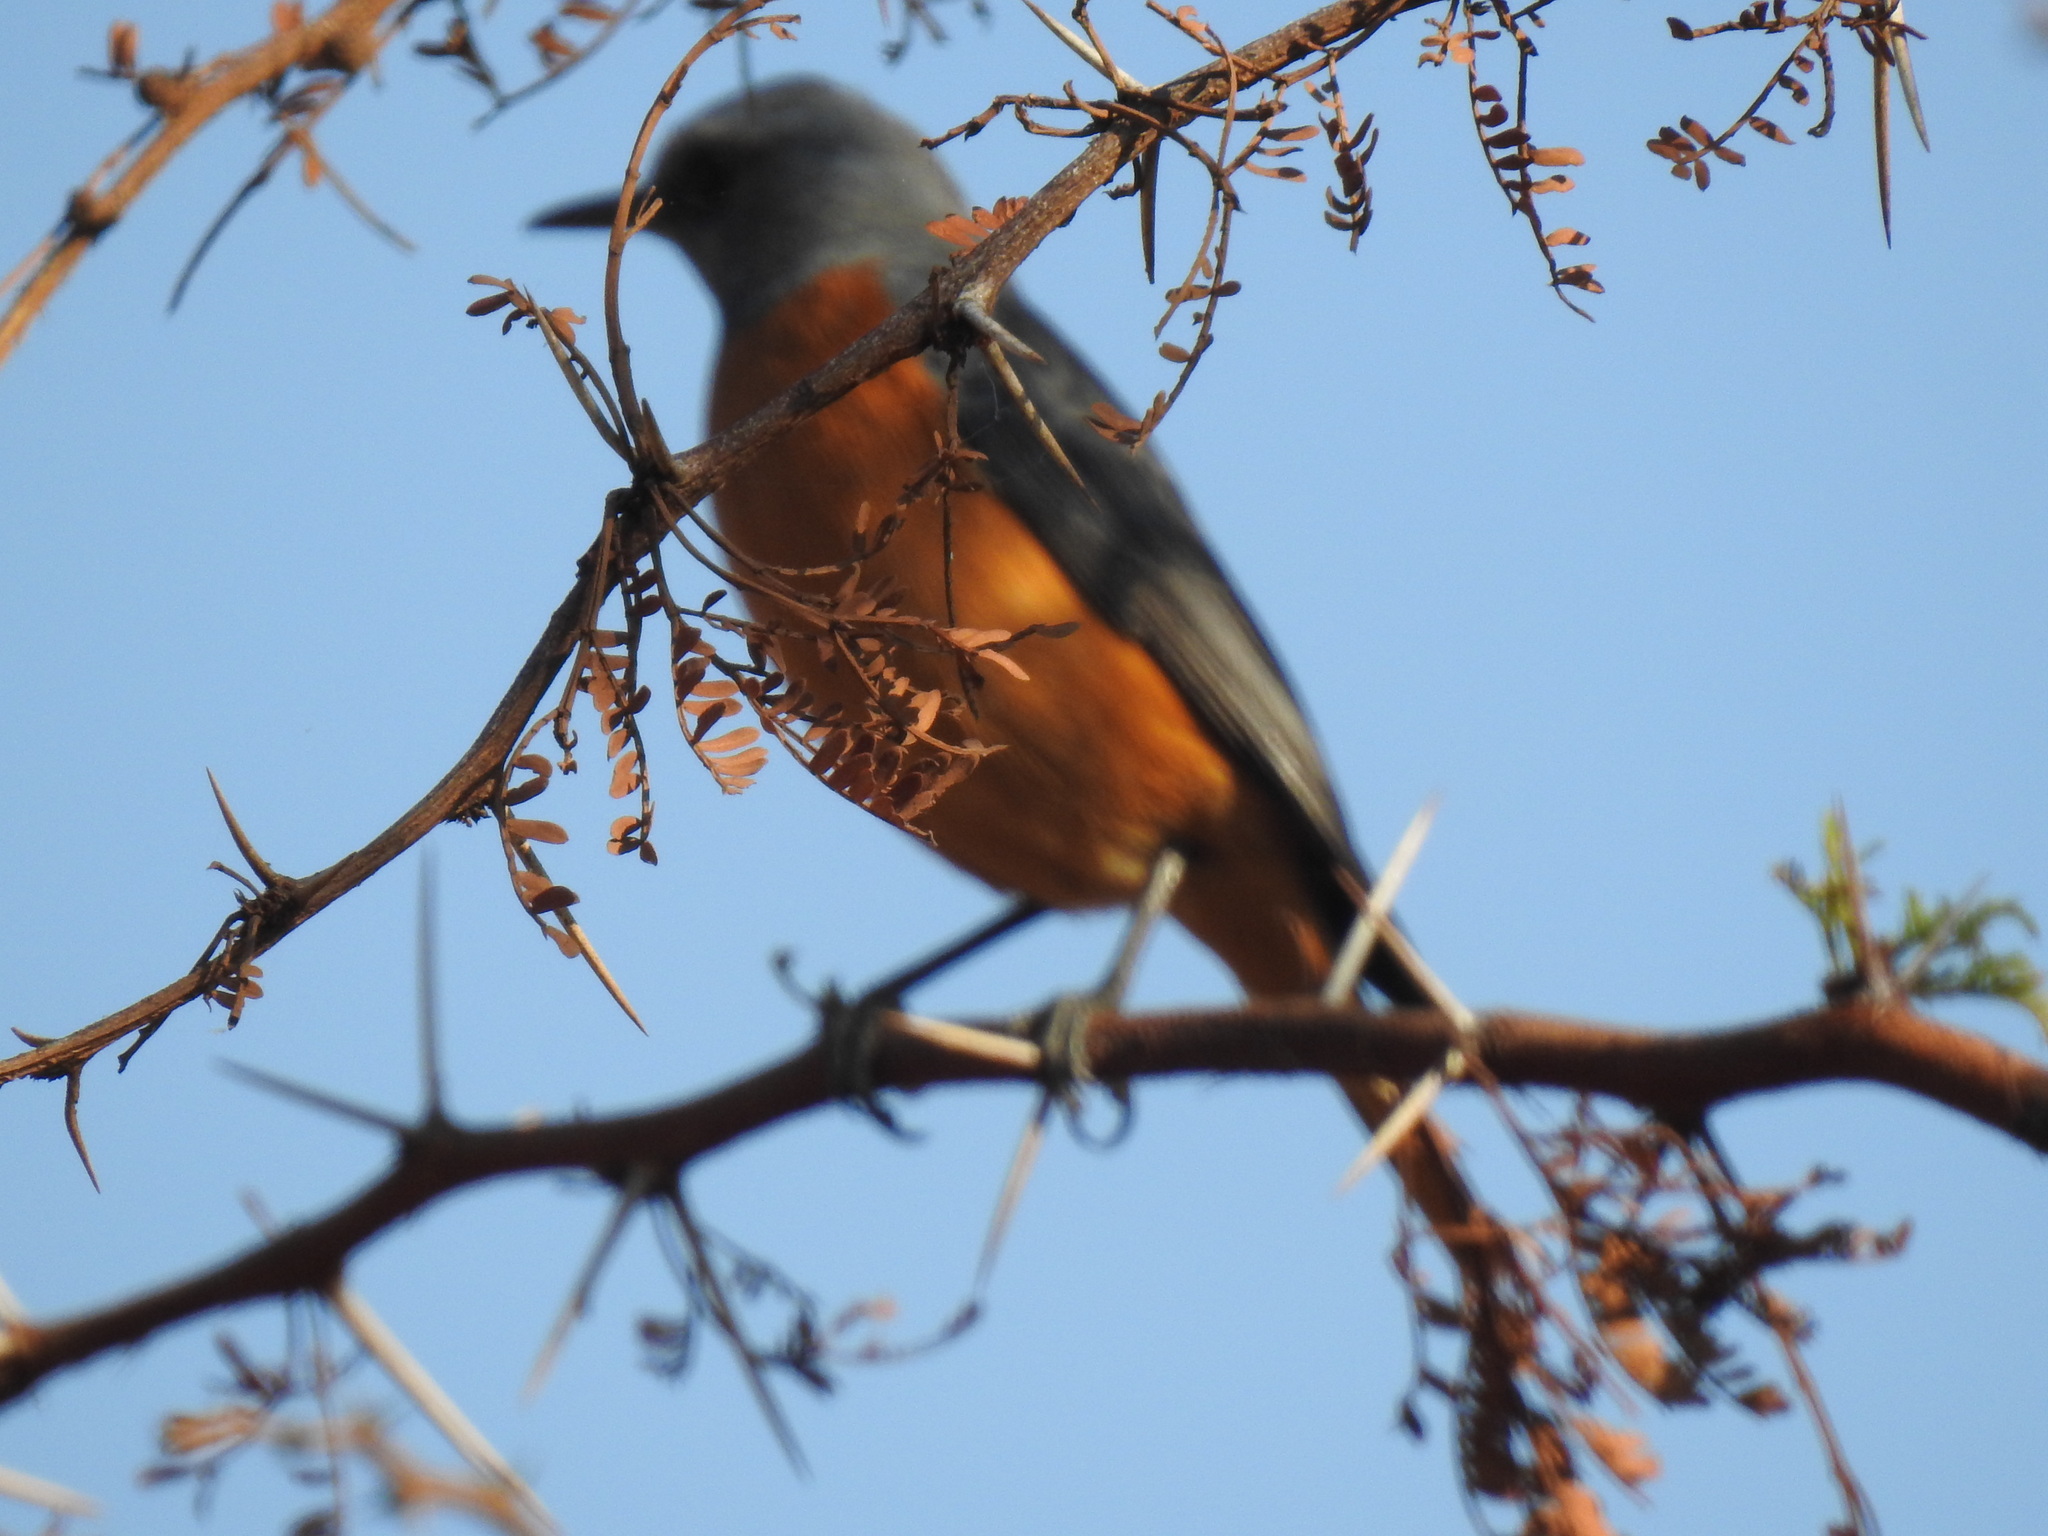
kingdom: Animalia
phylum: Chordata
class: Aves
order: Passeriformes
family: Muscicapidae
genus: Monticola
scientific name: Monticola brevipes
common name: Short-toed rock thrush
